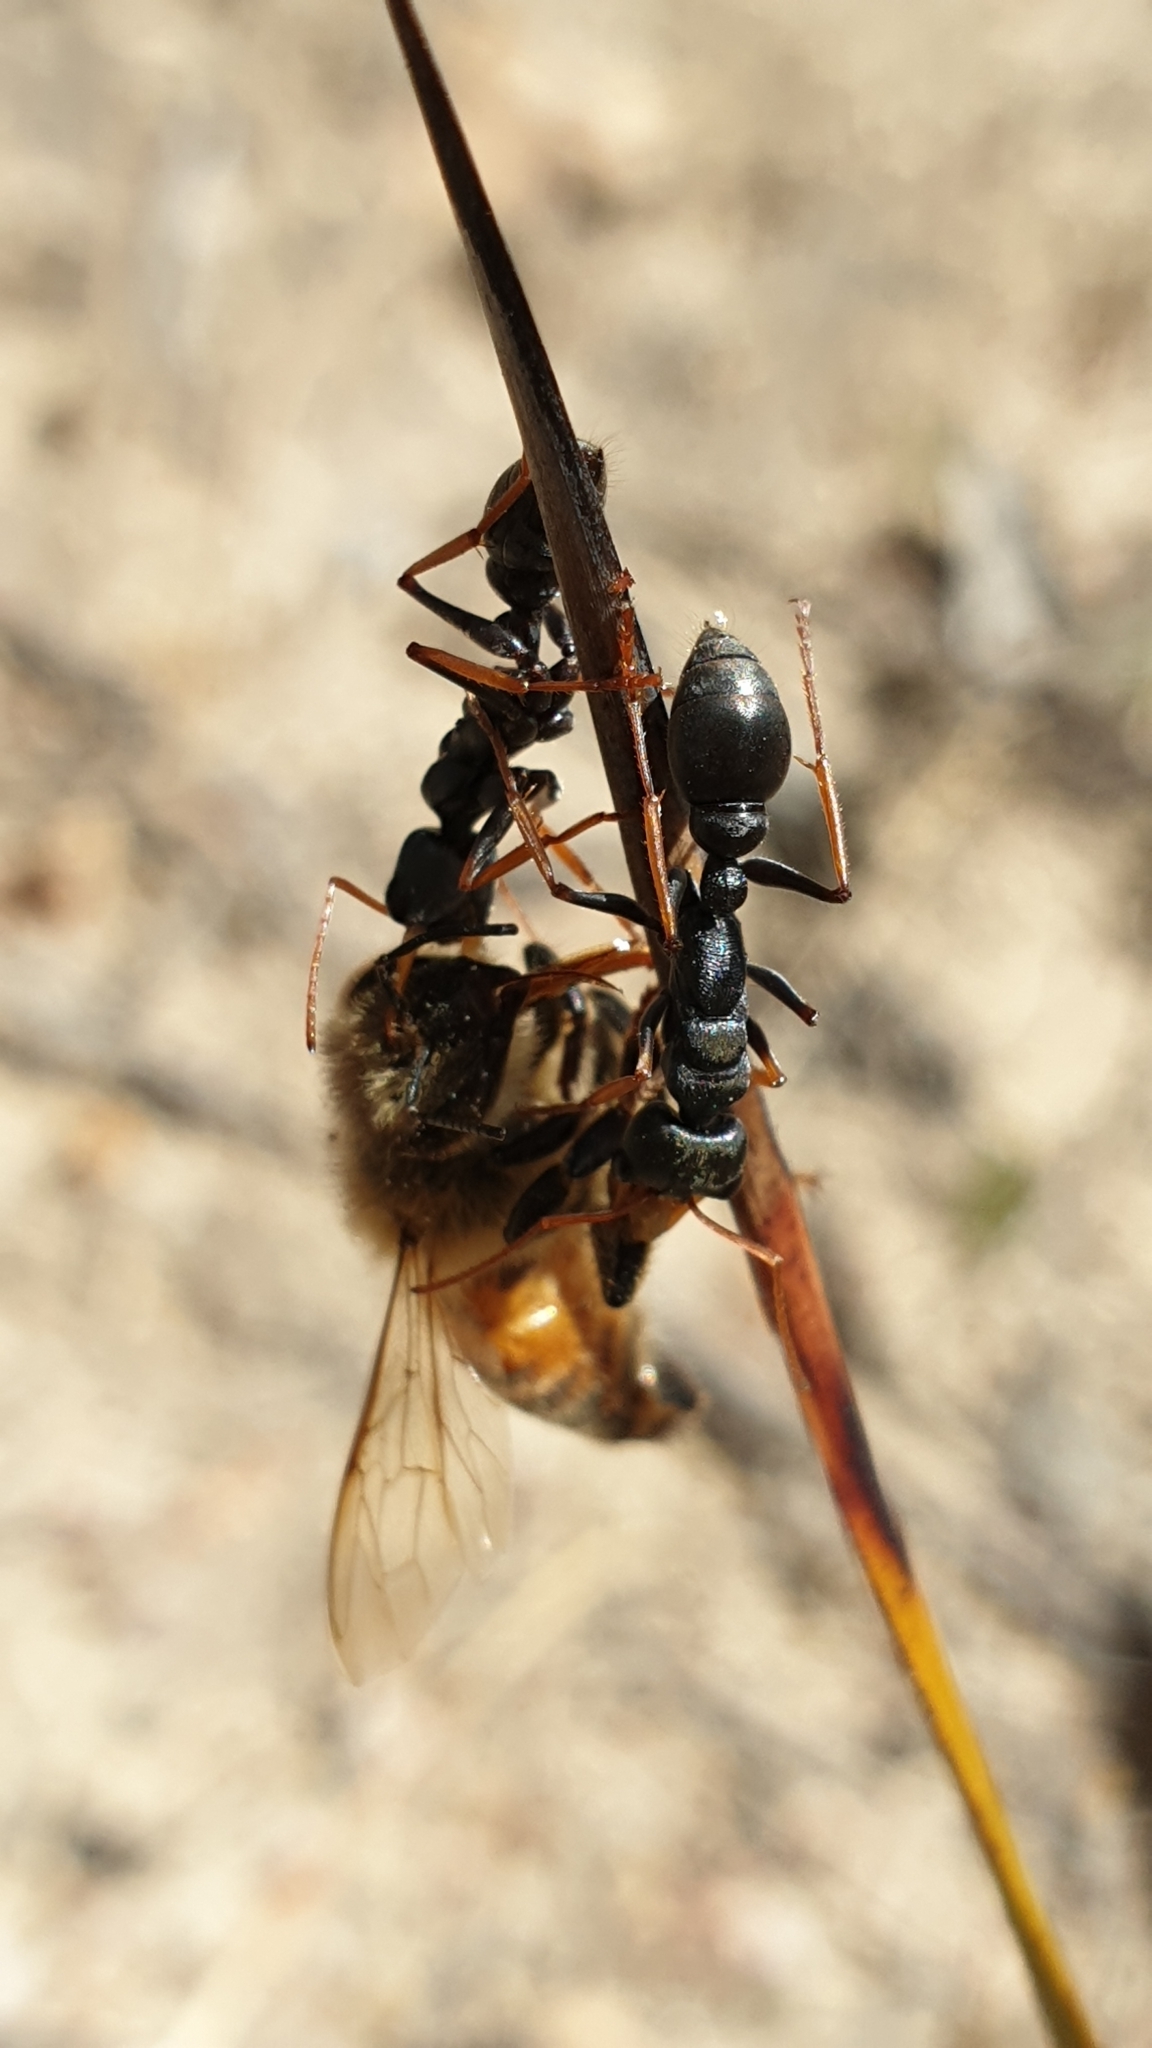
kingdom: Animalia
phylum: Arthropoda
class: Insecta
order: Hymenoptera
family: Formicidae
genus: Myrmecia
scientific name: Myrmecia pilosula
